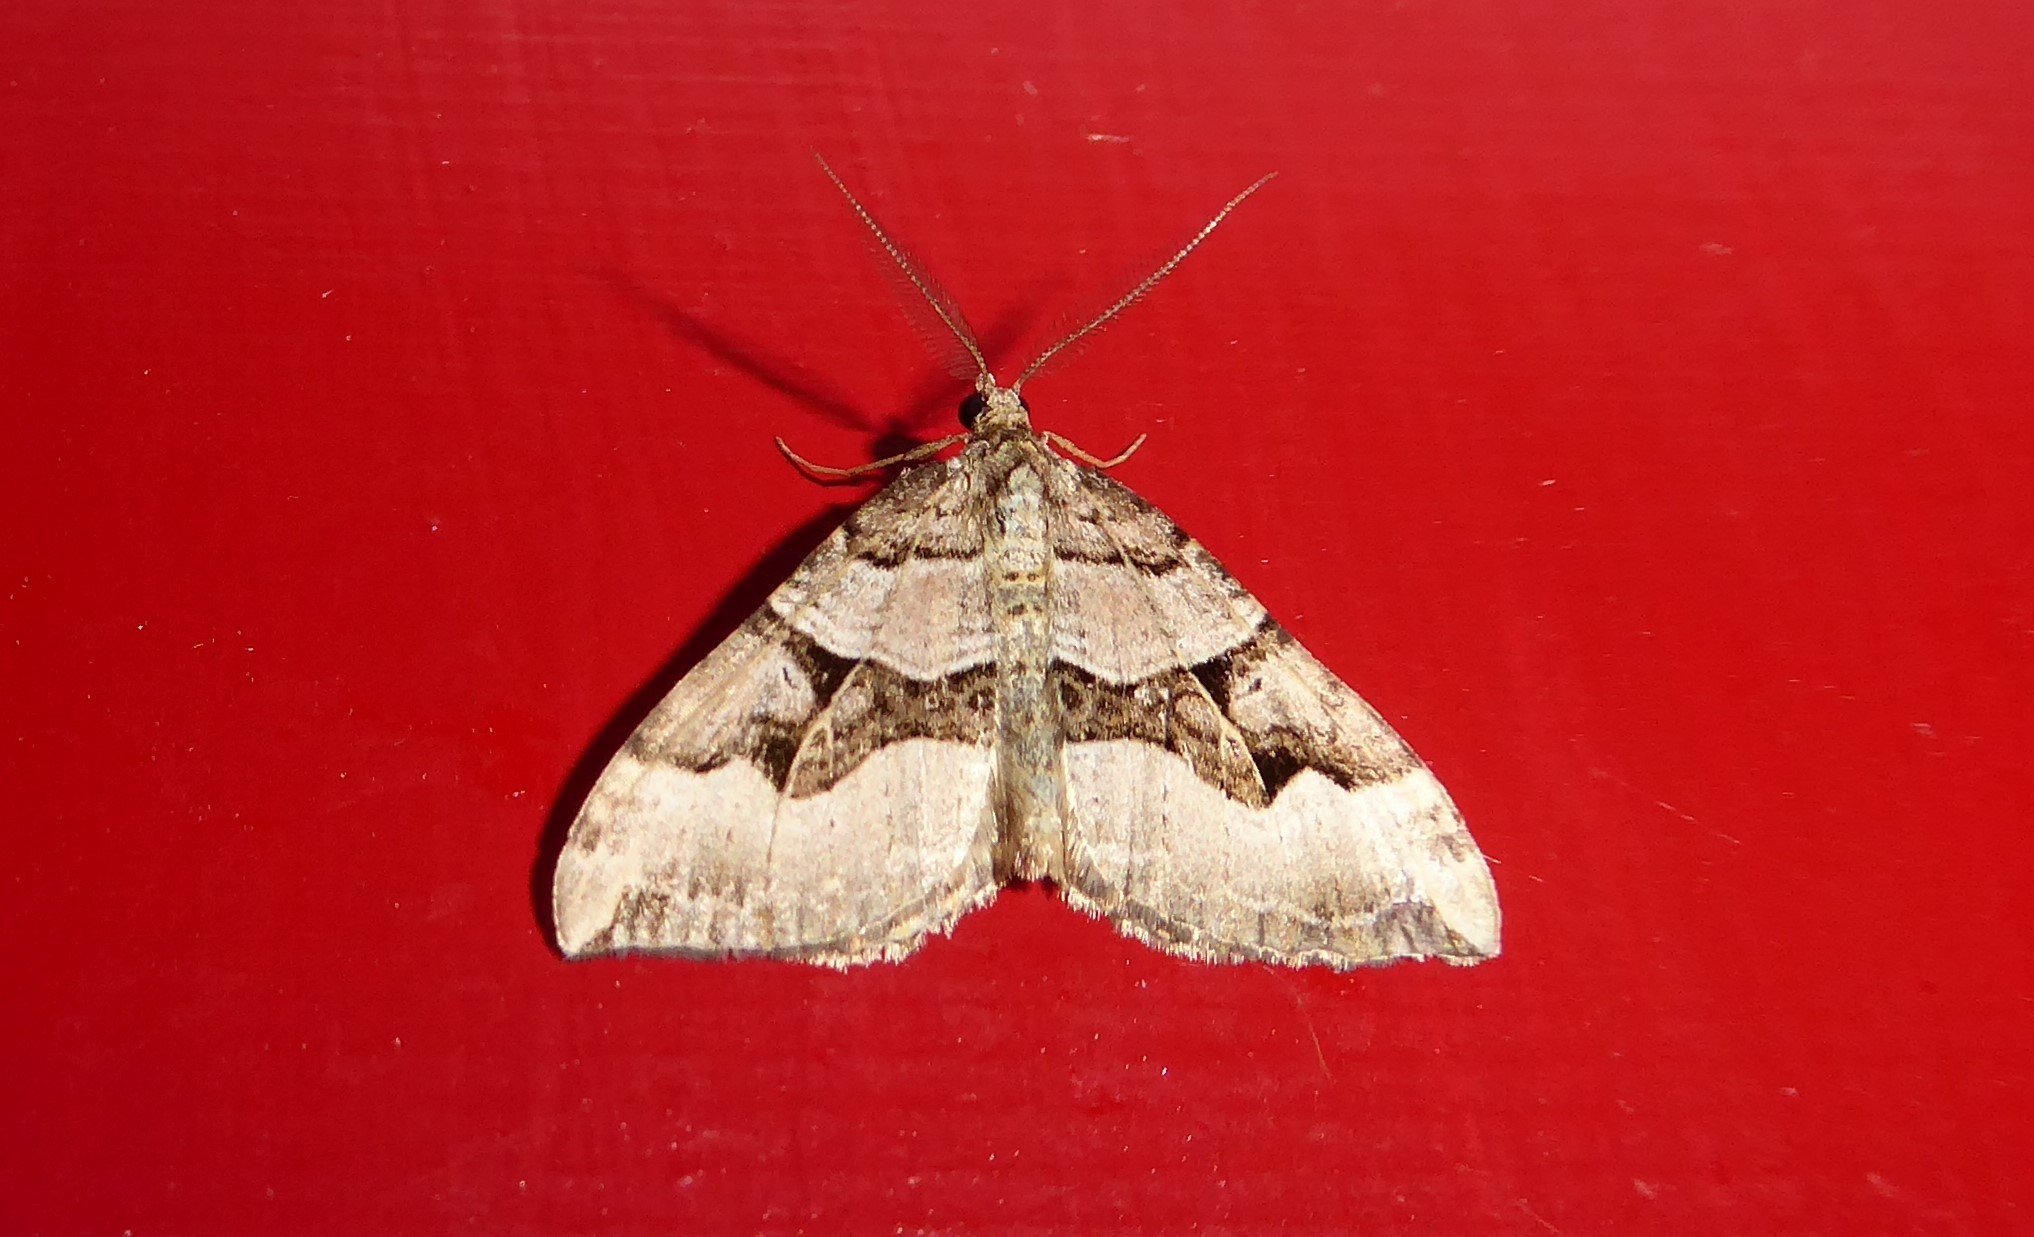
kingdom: Animalia
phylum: Arthropoda
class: Insecta
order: Lepidoptera
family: Geometridae
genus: Xanthorhoe
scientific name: Xanthorhoe semifissata
